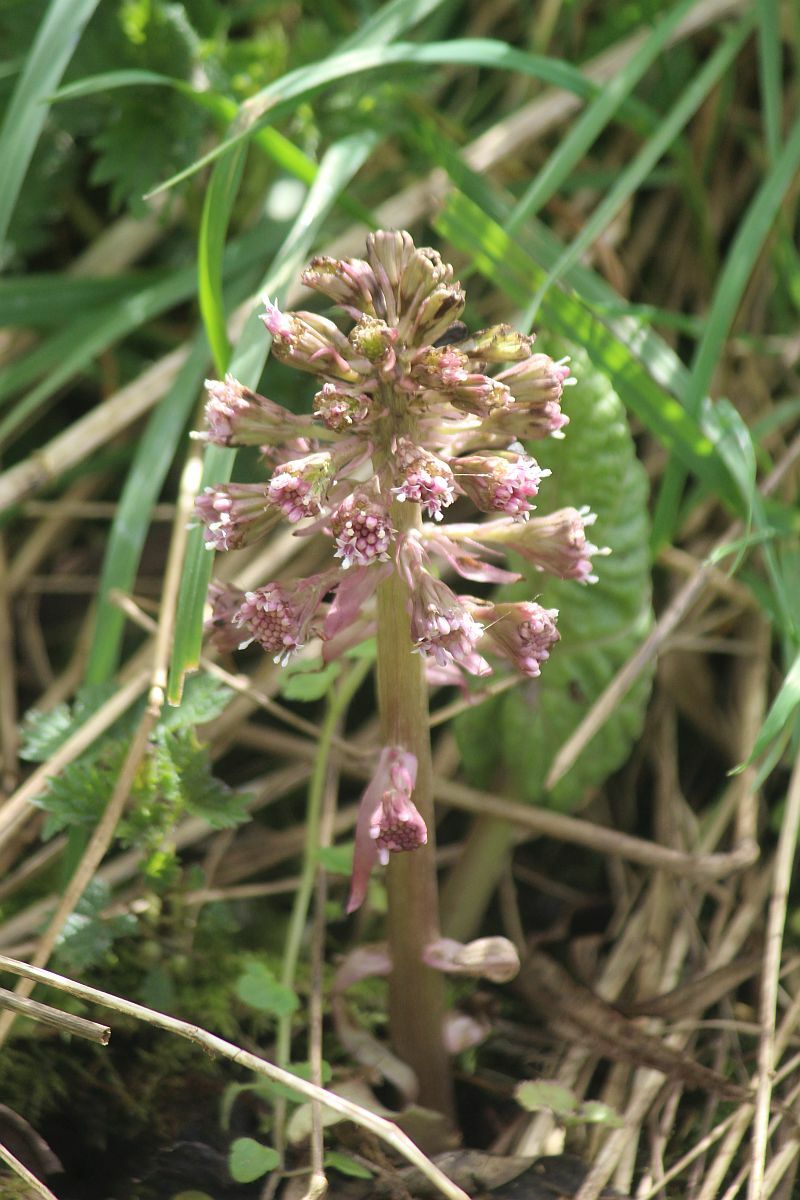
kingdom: Plantae
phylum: Tracheophyta
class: Magnoliopsida
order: Asterales
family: Asteraceae
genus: Petasites
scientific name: Petasites hybridus
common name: Butterbur
